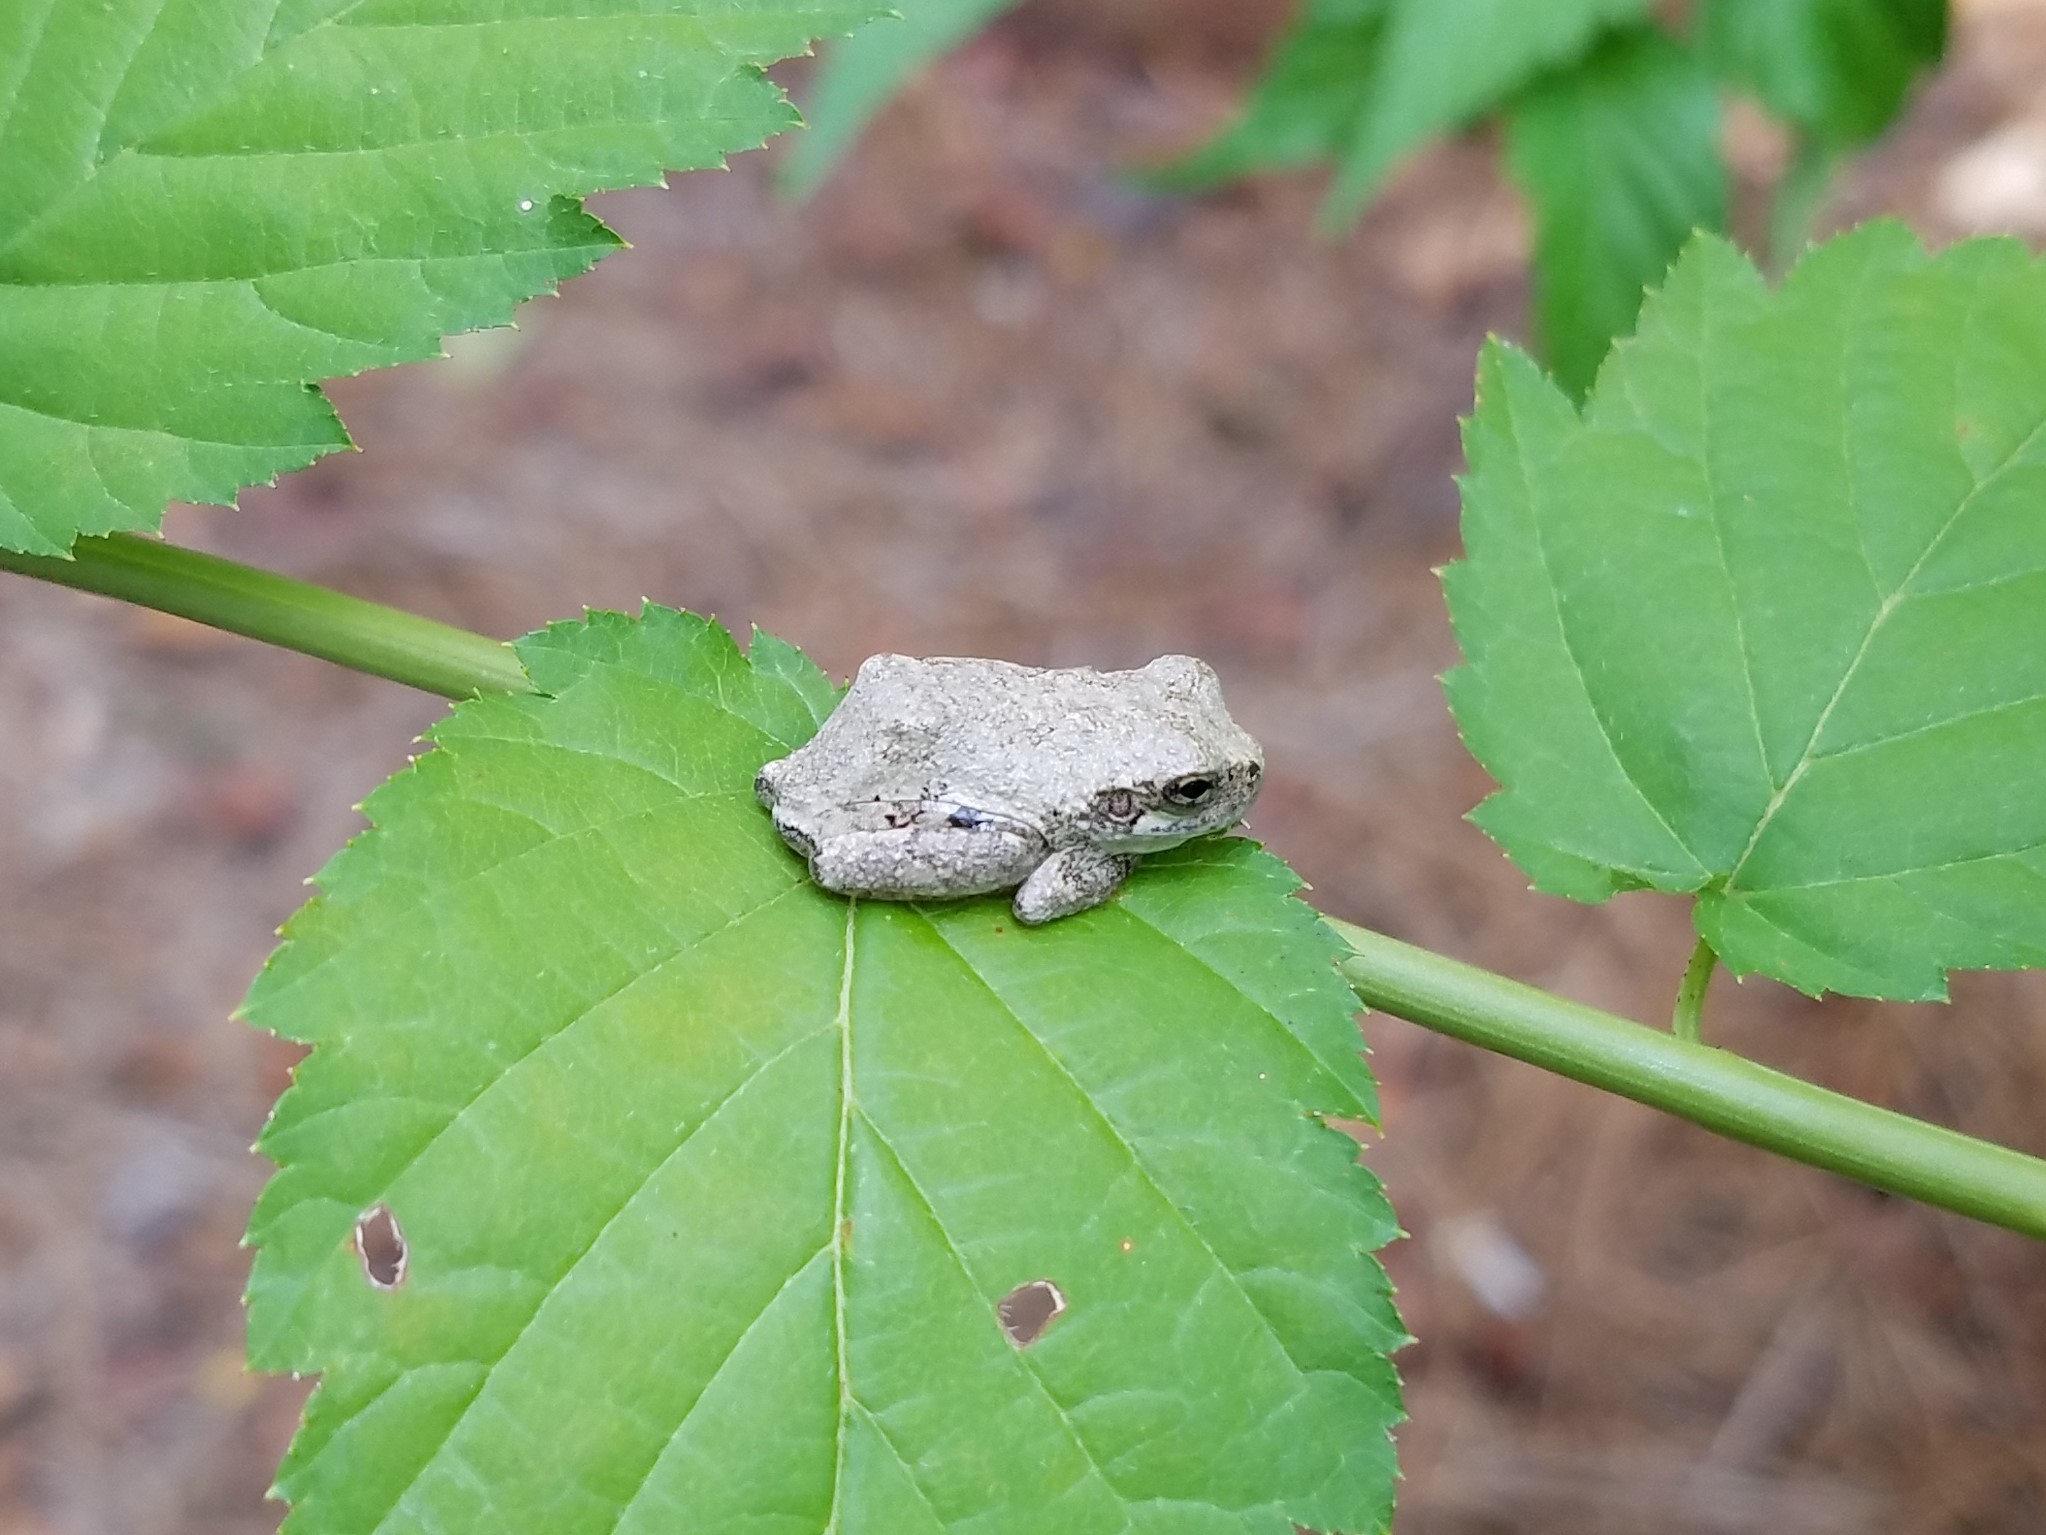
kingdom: Animalia
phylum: Chordata
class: Amphibia
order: Anura
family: Hylidae
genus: Dryophytes
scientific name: Dryophytes chrysoscelis
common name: Cope's gray treefrog
